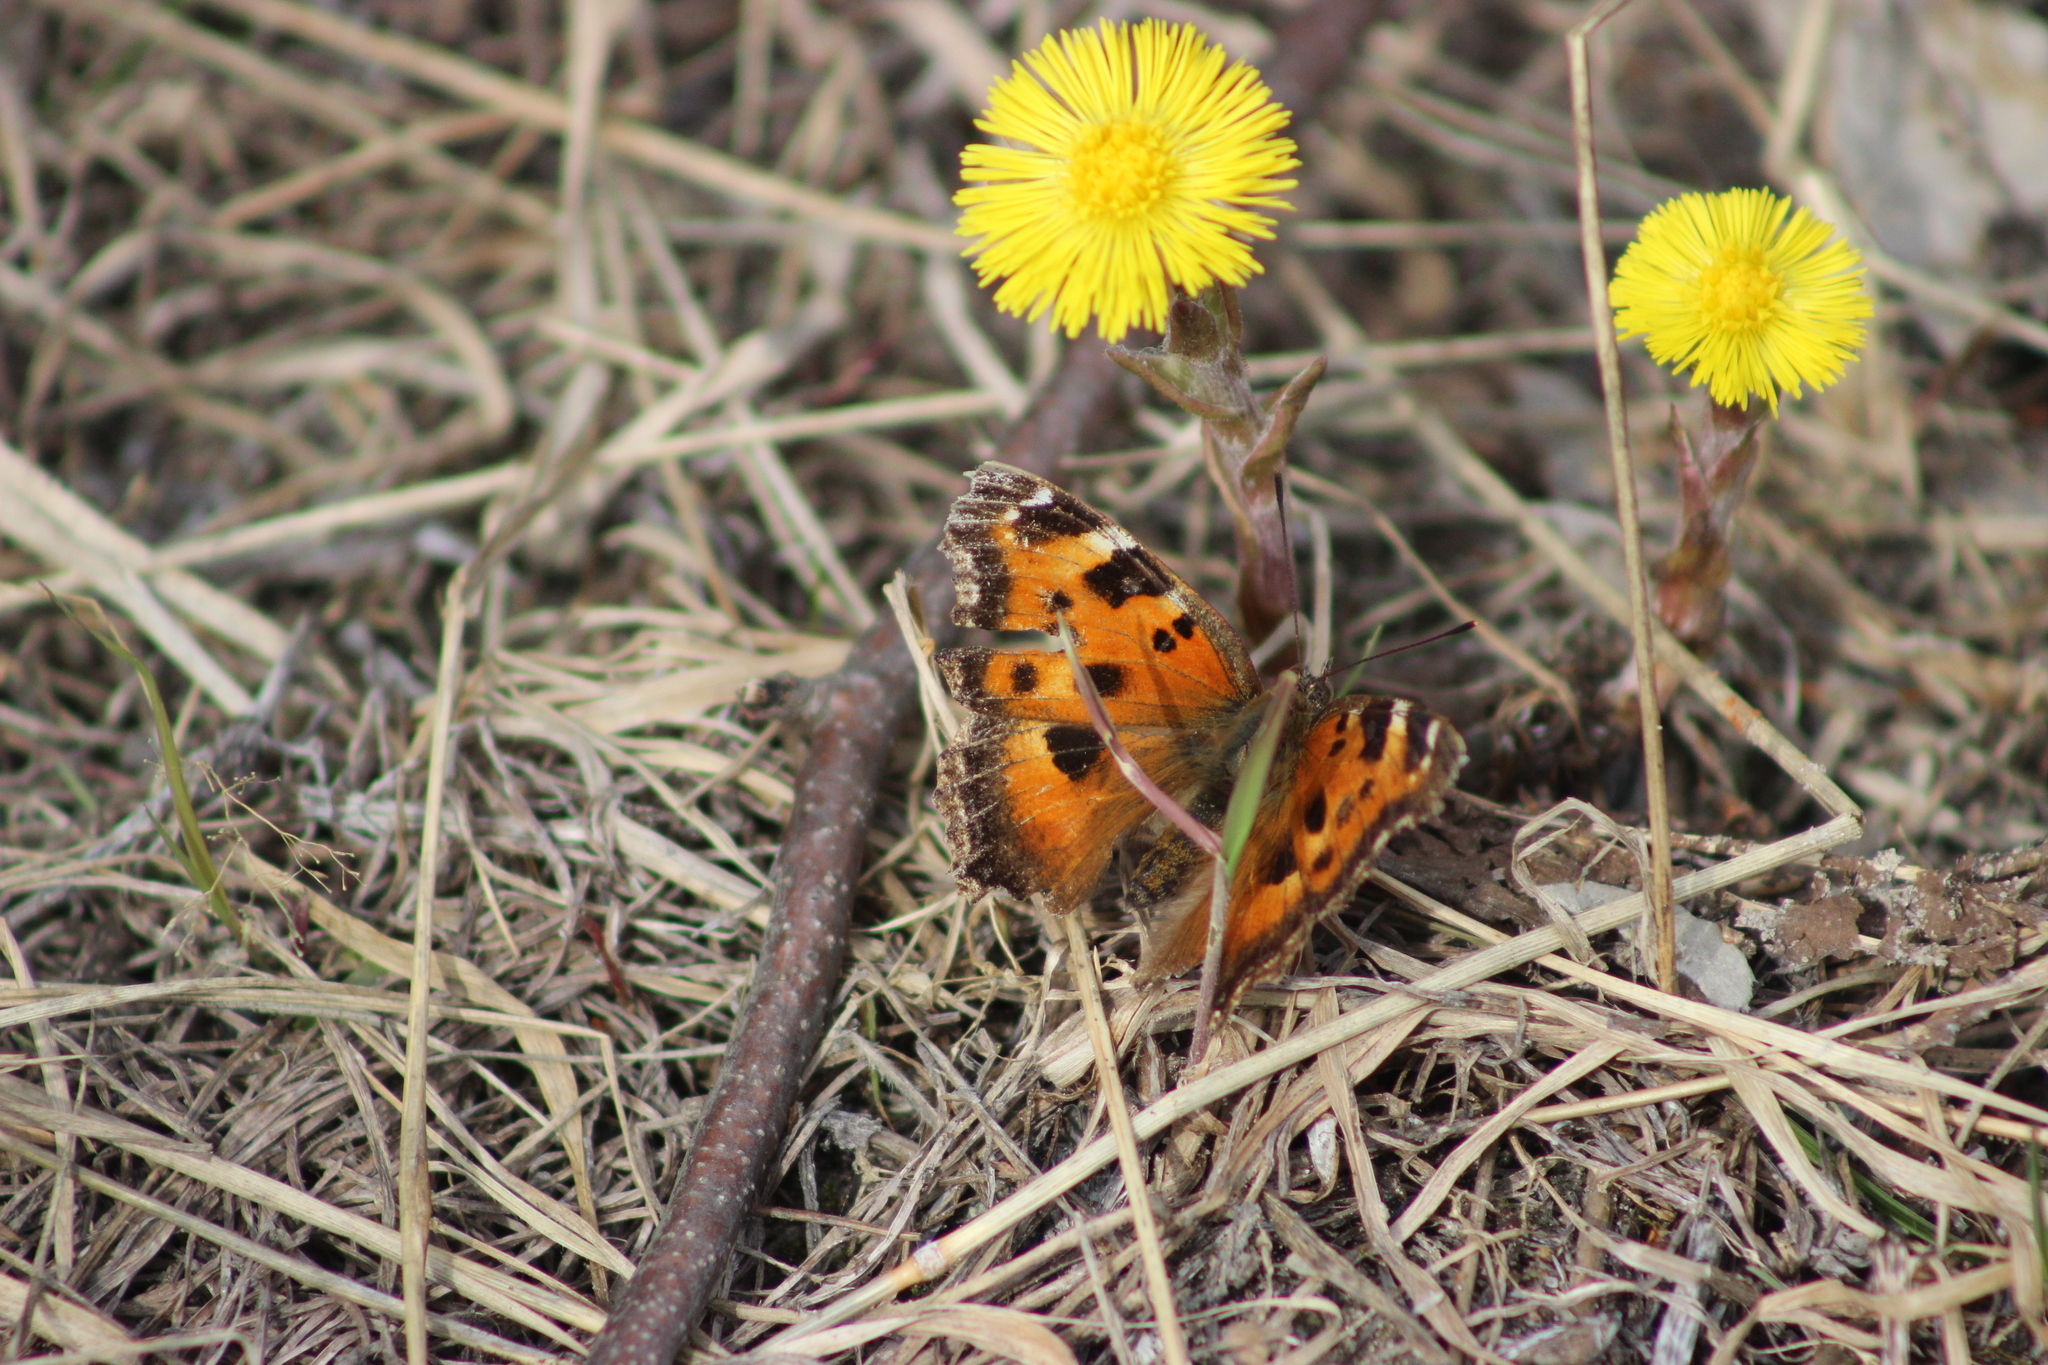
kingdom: Animalia
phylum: Arthropoda
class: Insecta
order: Lepidoptera
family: Nymphalidae
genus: Nymphalis
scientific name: Nymphalis xanthomelas
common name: Scarce tortoiseshell
